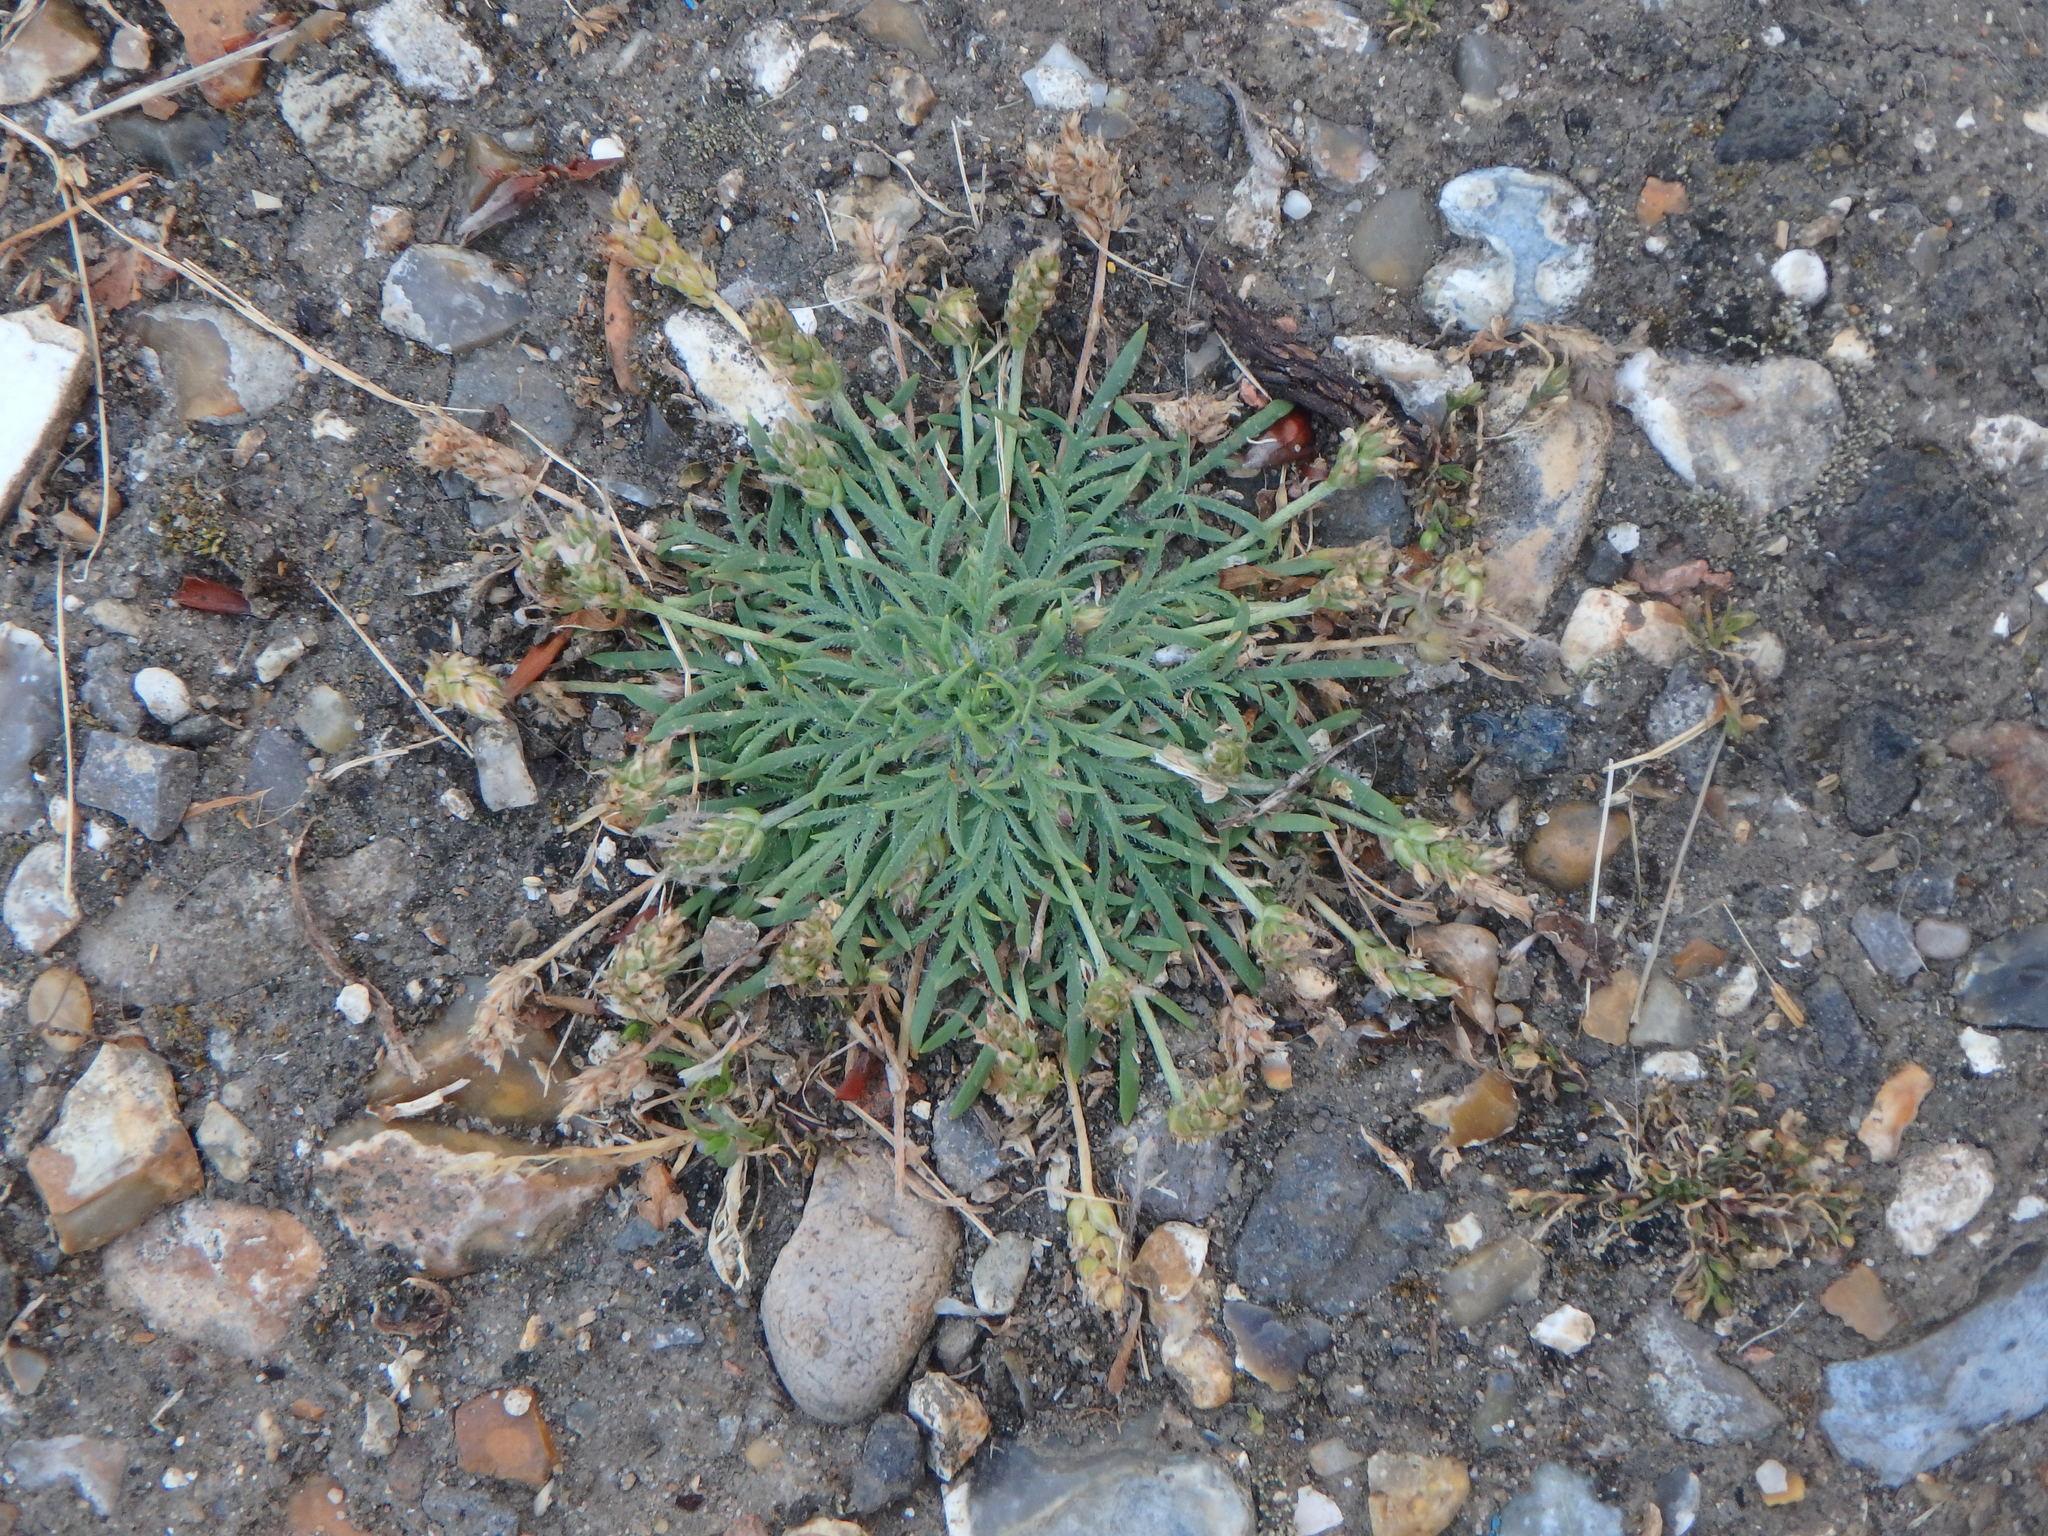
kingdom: Plantae
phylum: Tracheophyta
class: Magnoliopsida
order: Lamiales
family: Plantaginaceae
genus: Plantago
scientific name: Plantago coronopus
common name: Buck's-horn plantain
